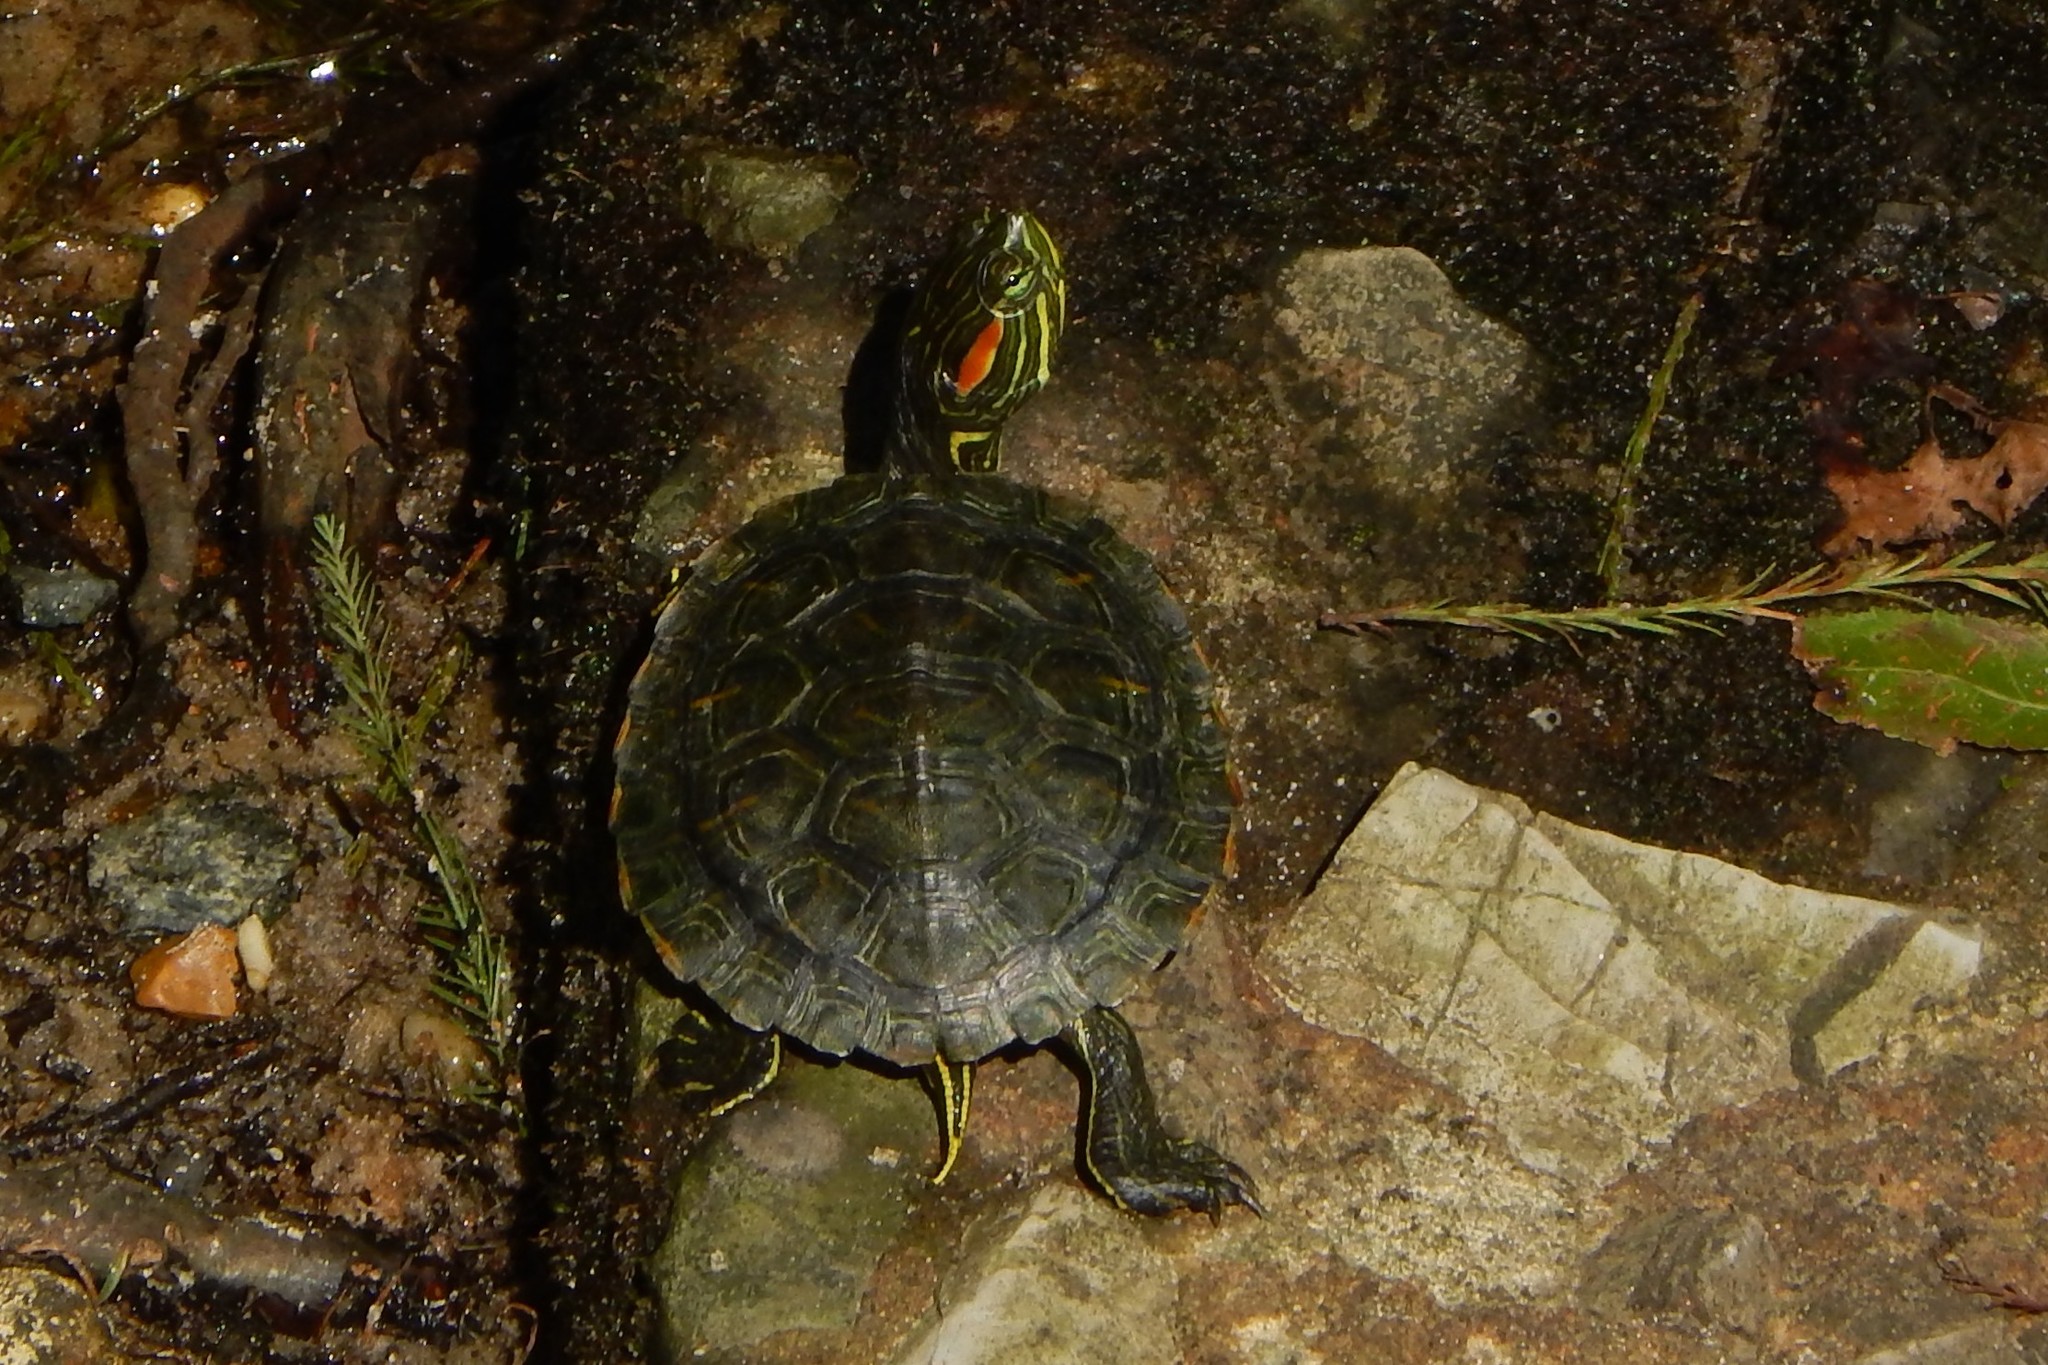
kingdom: Animalia
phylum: Chordata
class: Testudines
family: Emydidae
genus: Trachemys
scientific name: Trachemys scripta
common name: Slider
